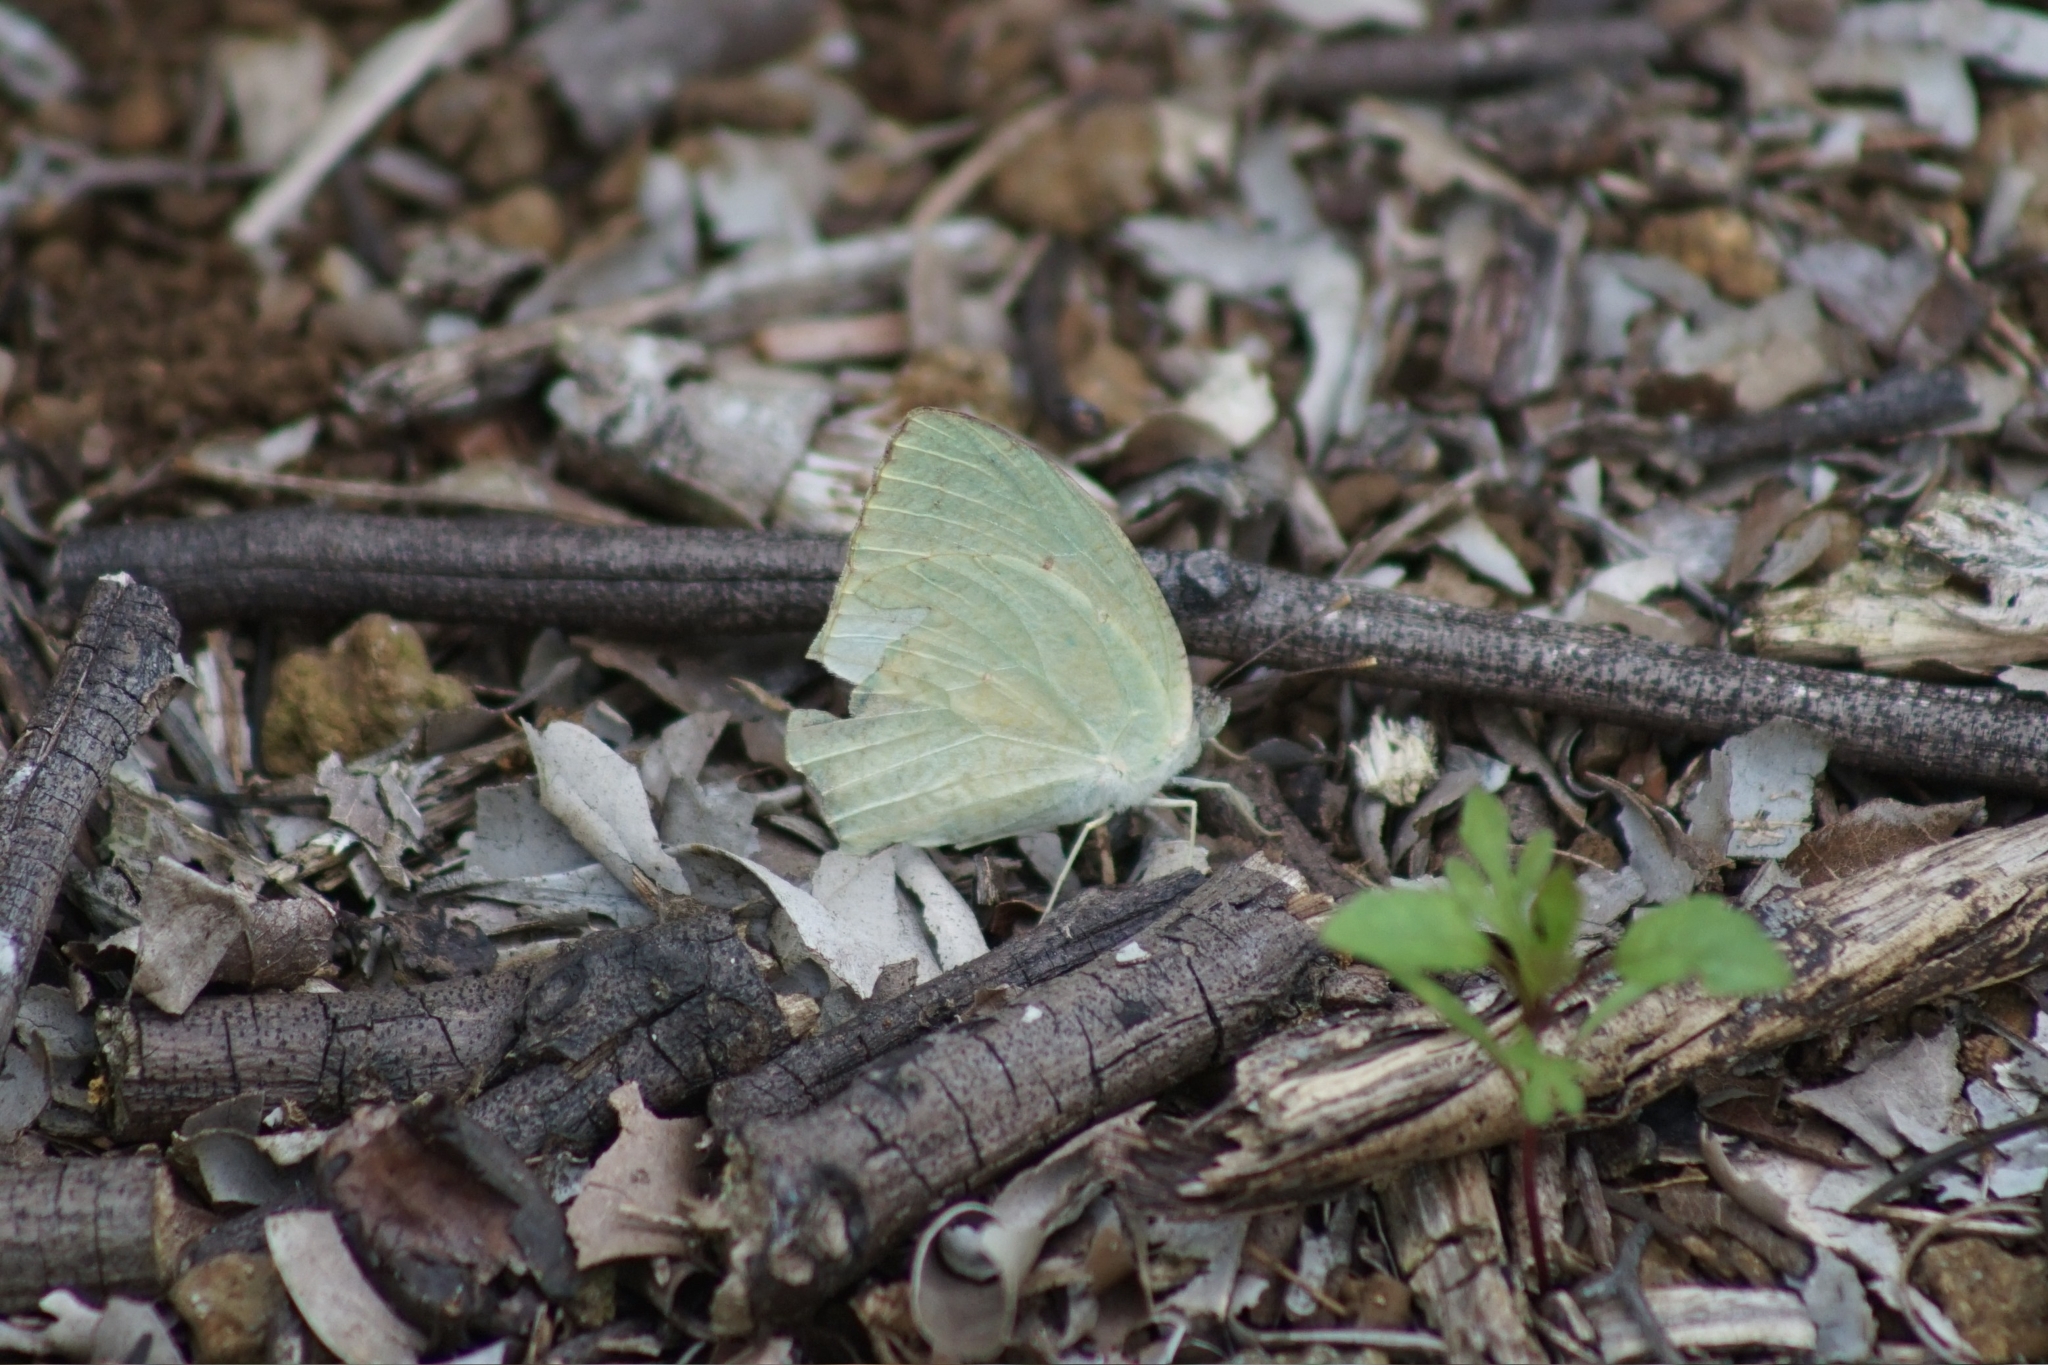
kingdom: Animalia
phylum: Arthropoda
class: Insecta
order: Lepidoptera
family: Pieridae
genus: Catopsilia
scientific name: Catopsilia florella
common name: African migrant
